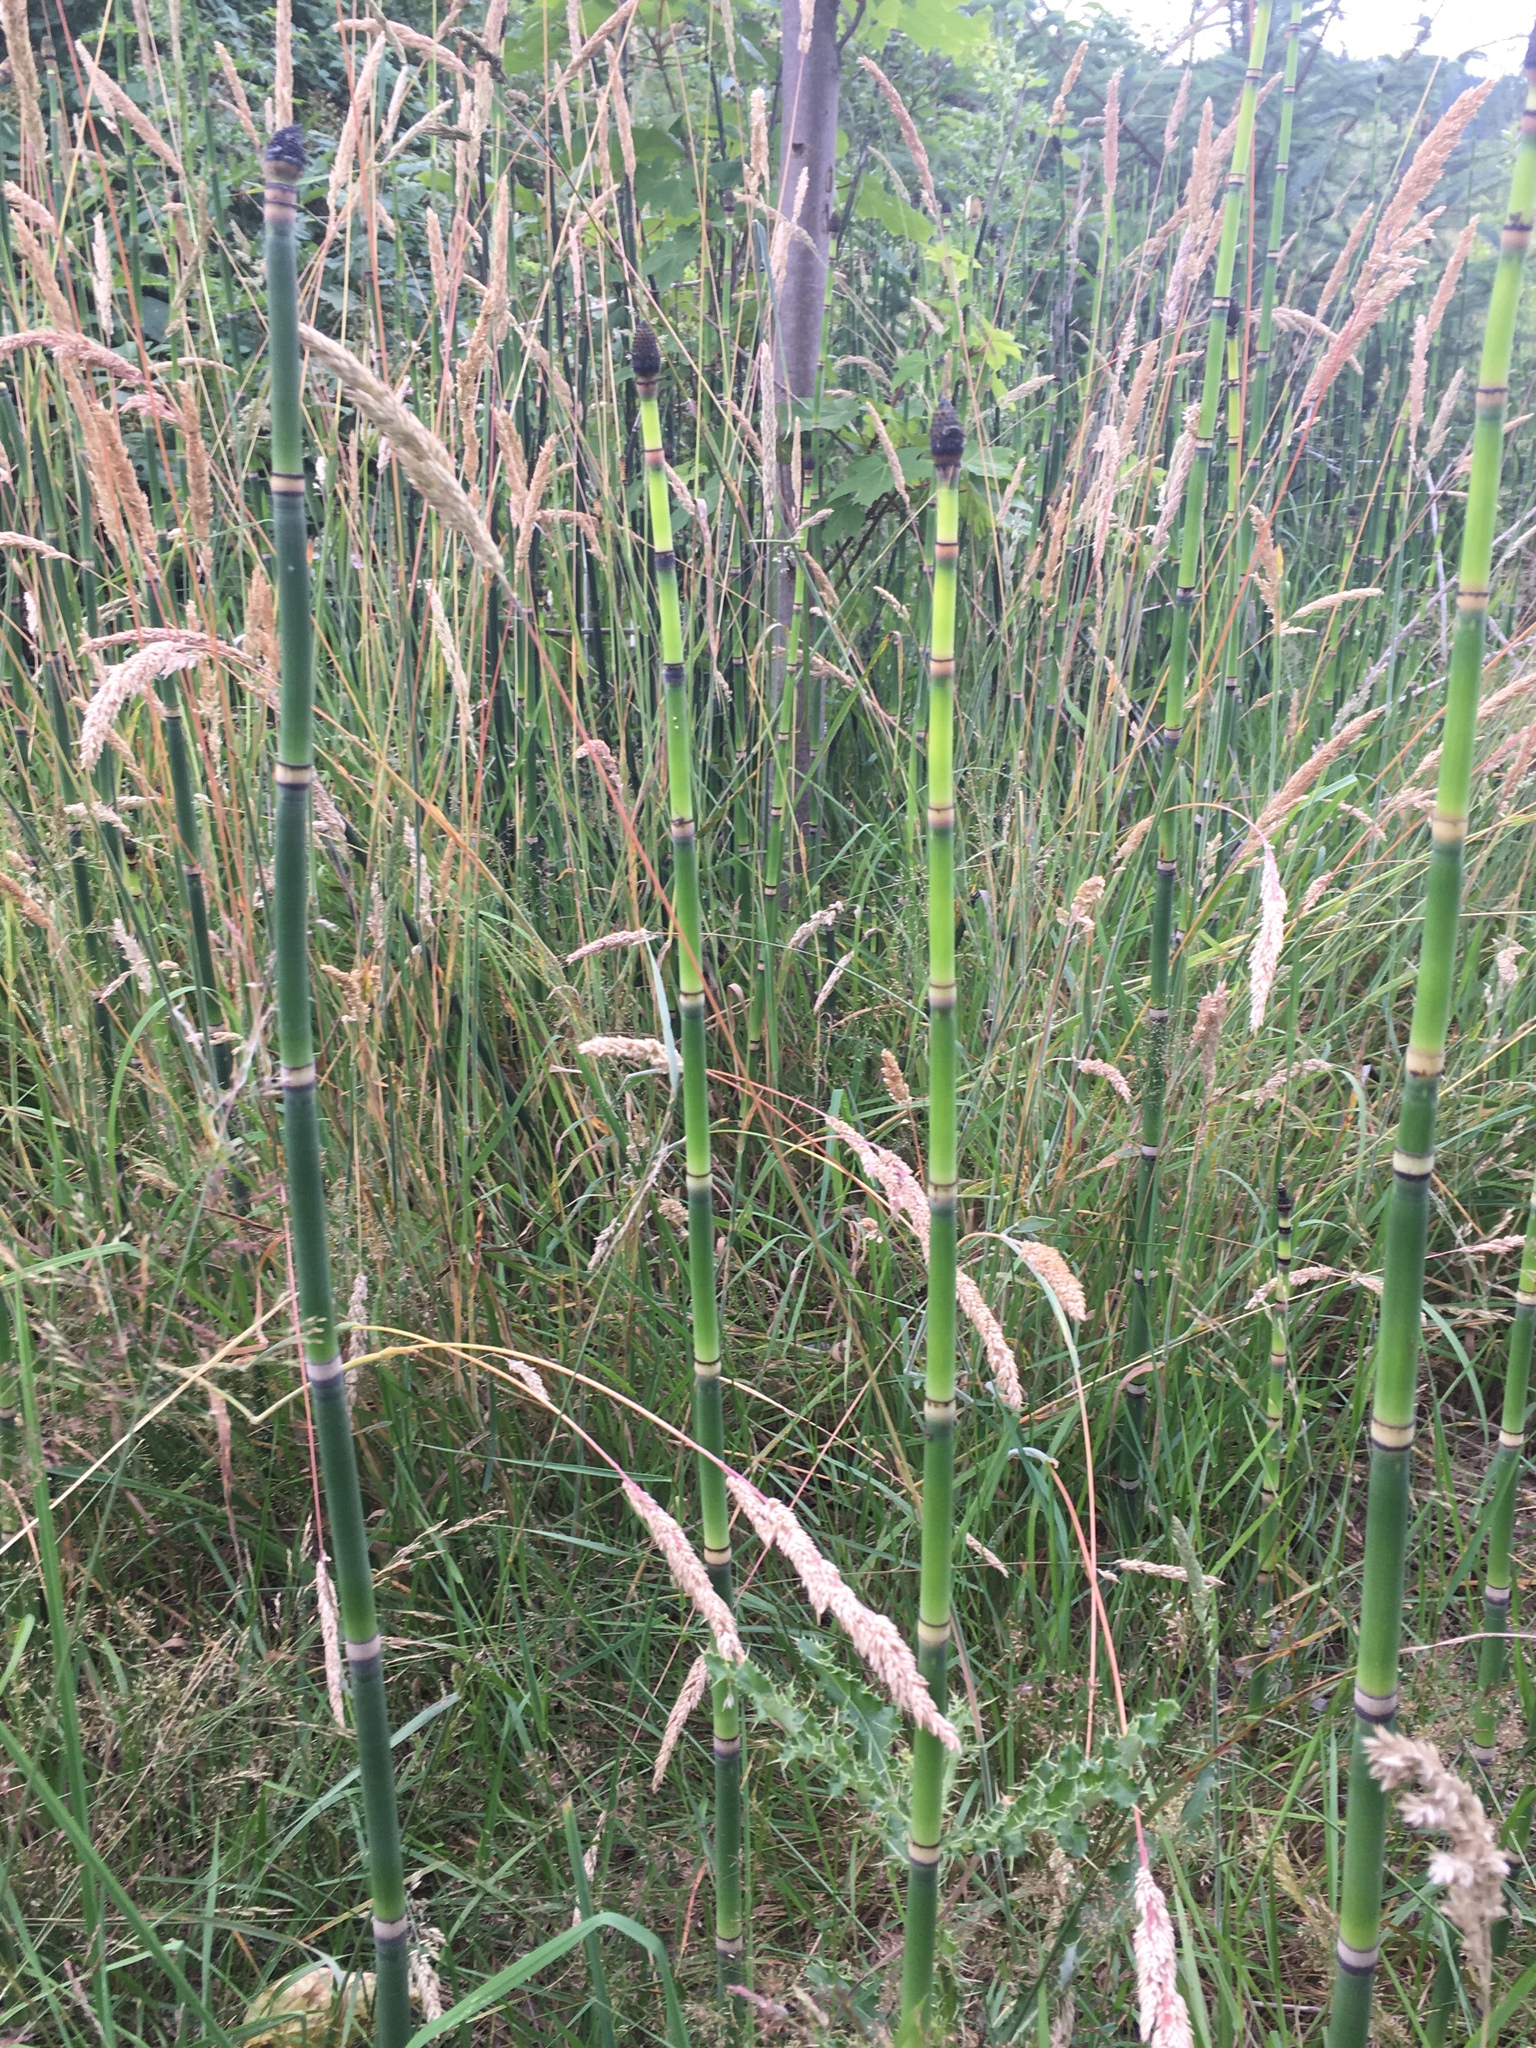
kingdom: Plantae
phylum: Tracheophyta
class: Polypodiopsida
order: Equisetales
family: Equisetaceae
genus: Equisetum
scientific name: Equisetum hyemale
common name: Rough horsetail
